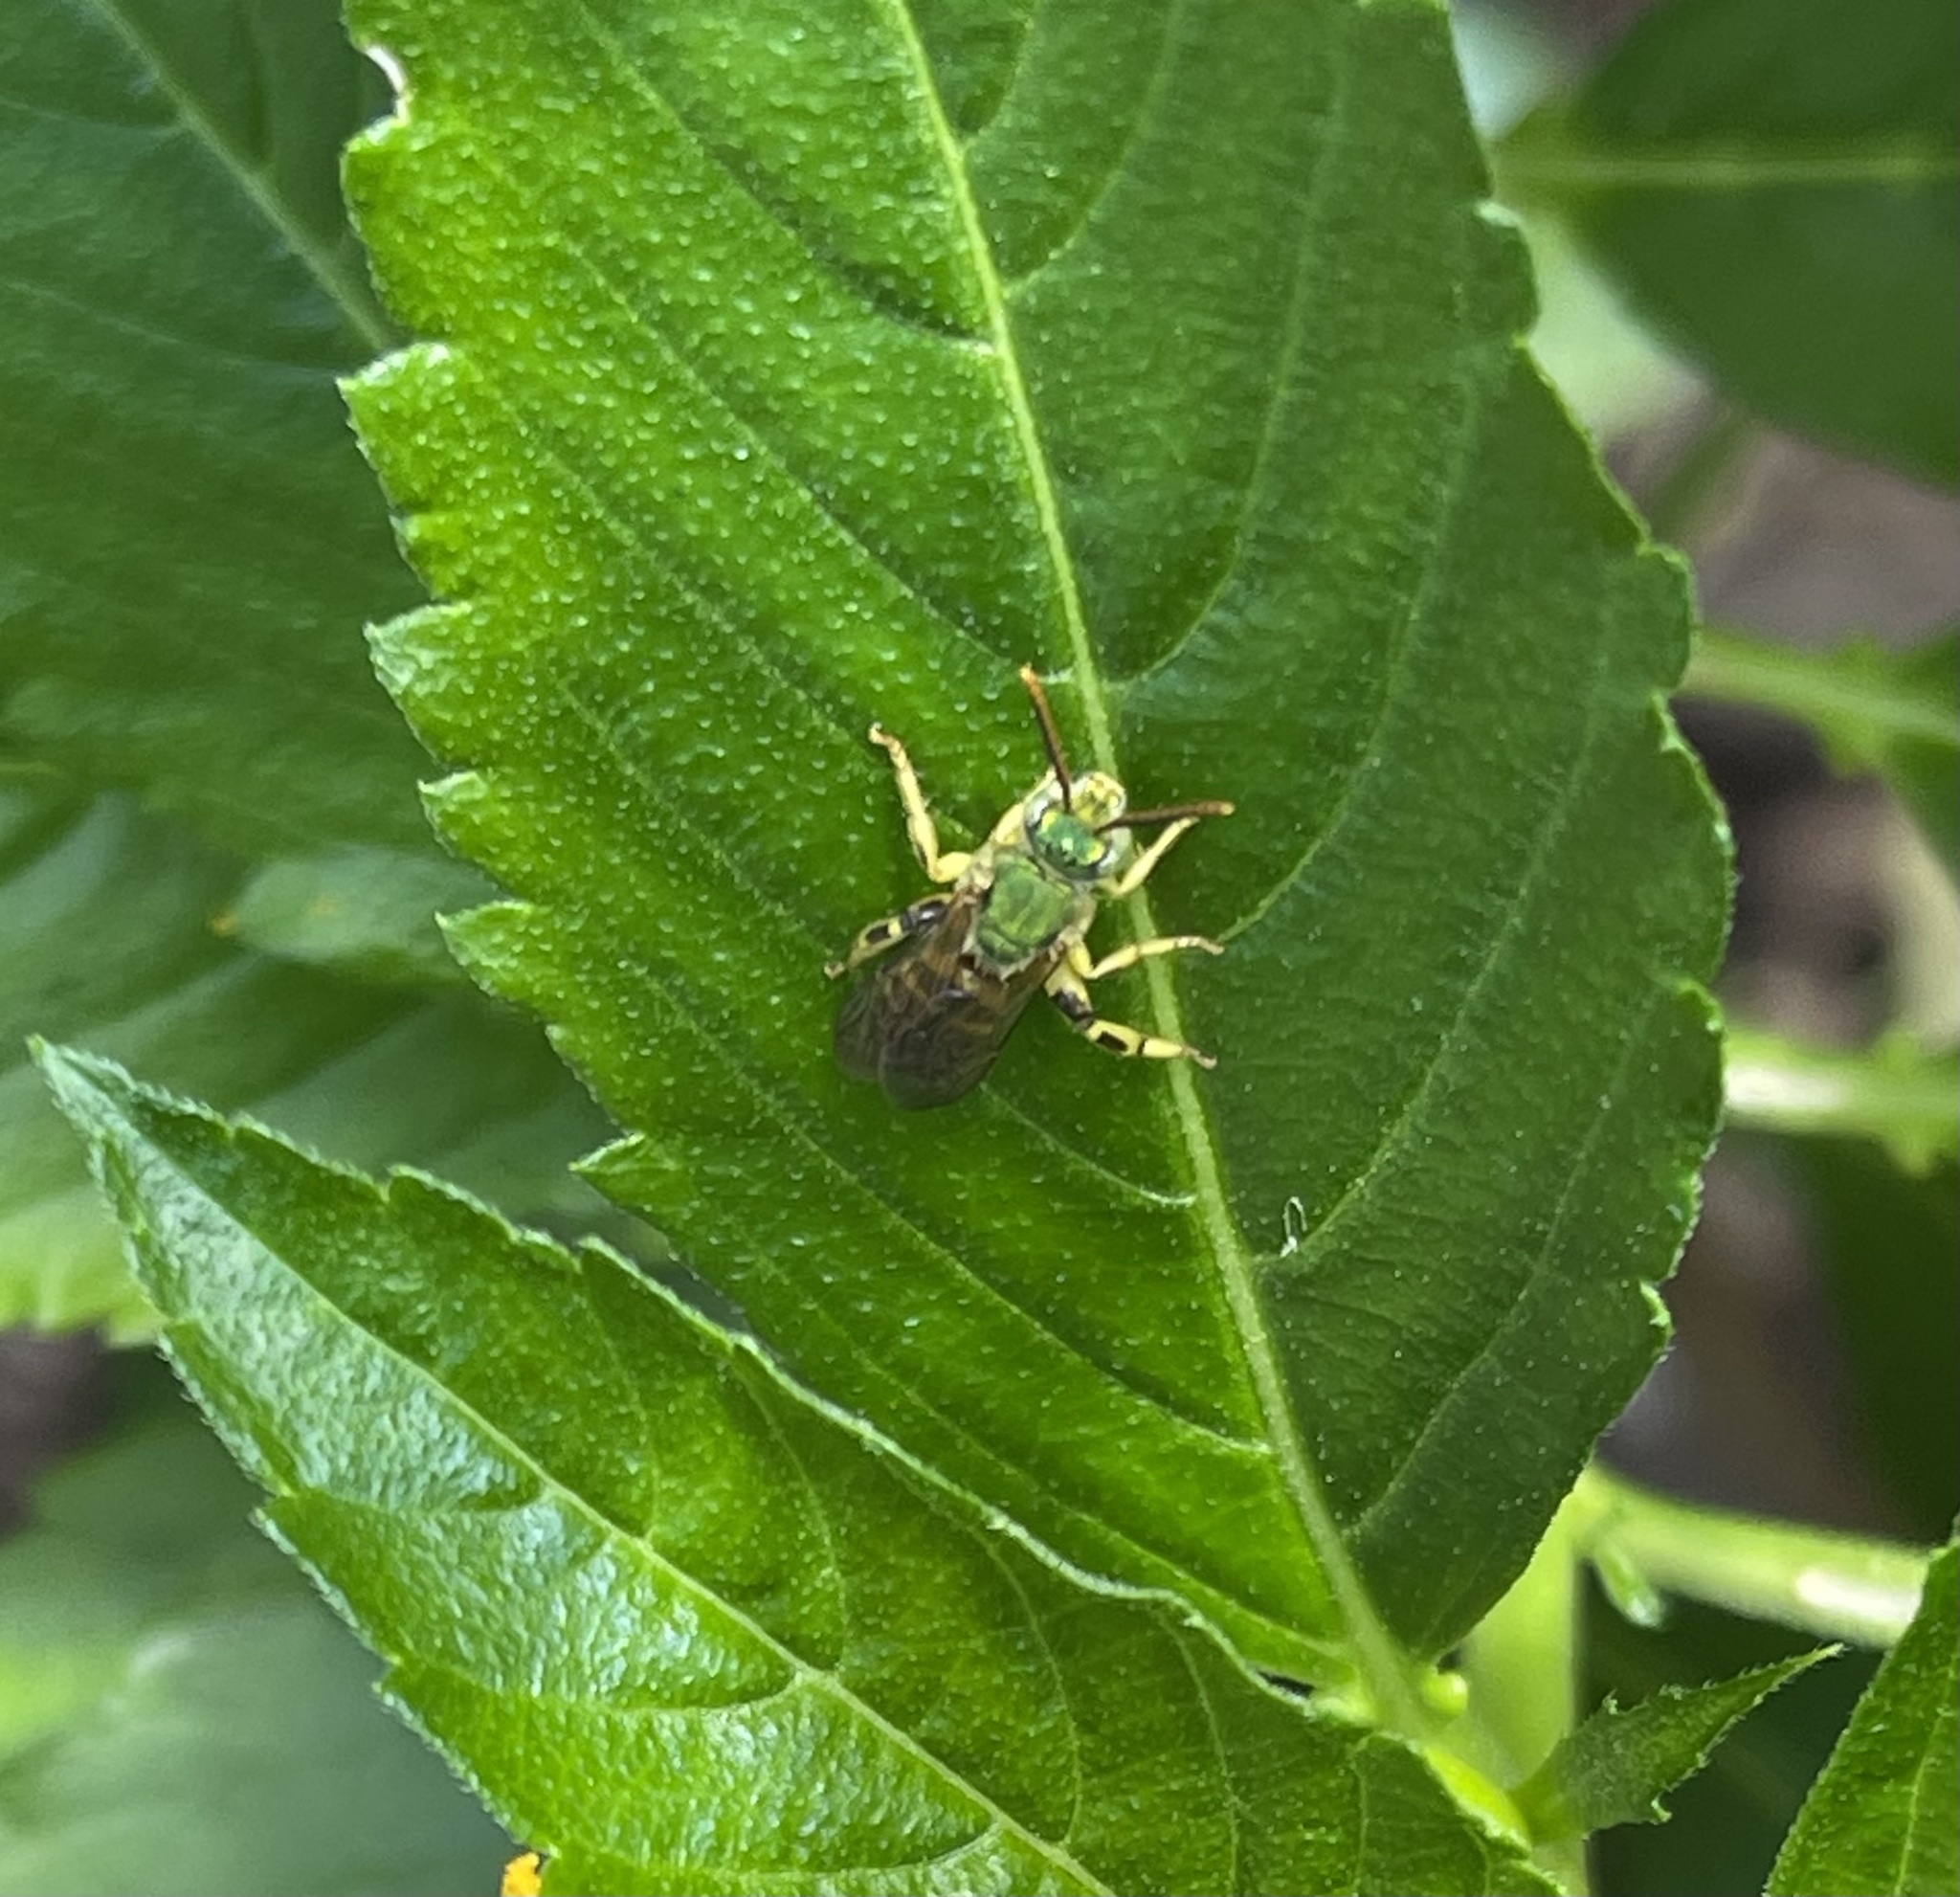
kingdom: Animalia
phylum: Arthropoda
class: Insecta
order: Hymenoptera
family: Halictidae
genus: Agapostemon
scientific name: Agapostemon splendens
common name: Brown-winged striped sweat bee
